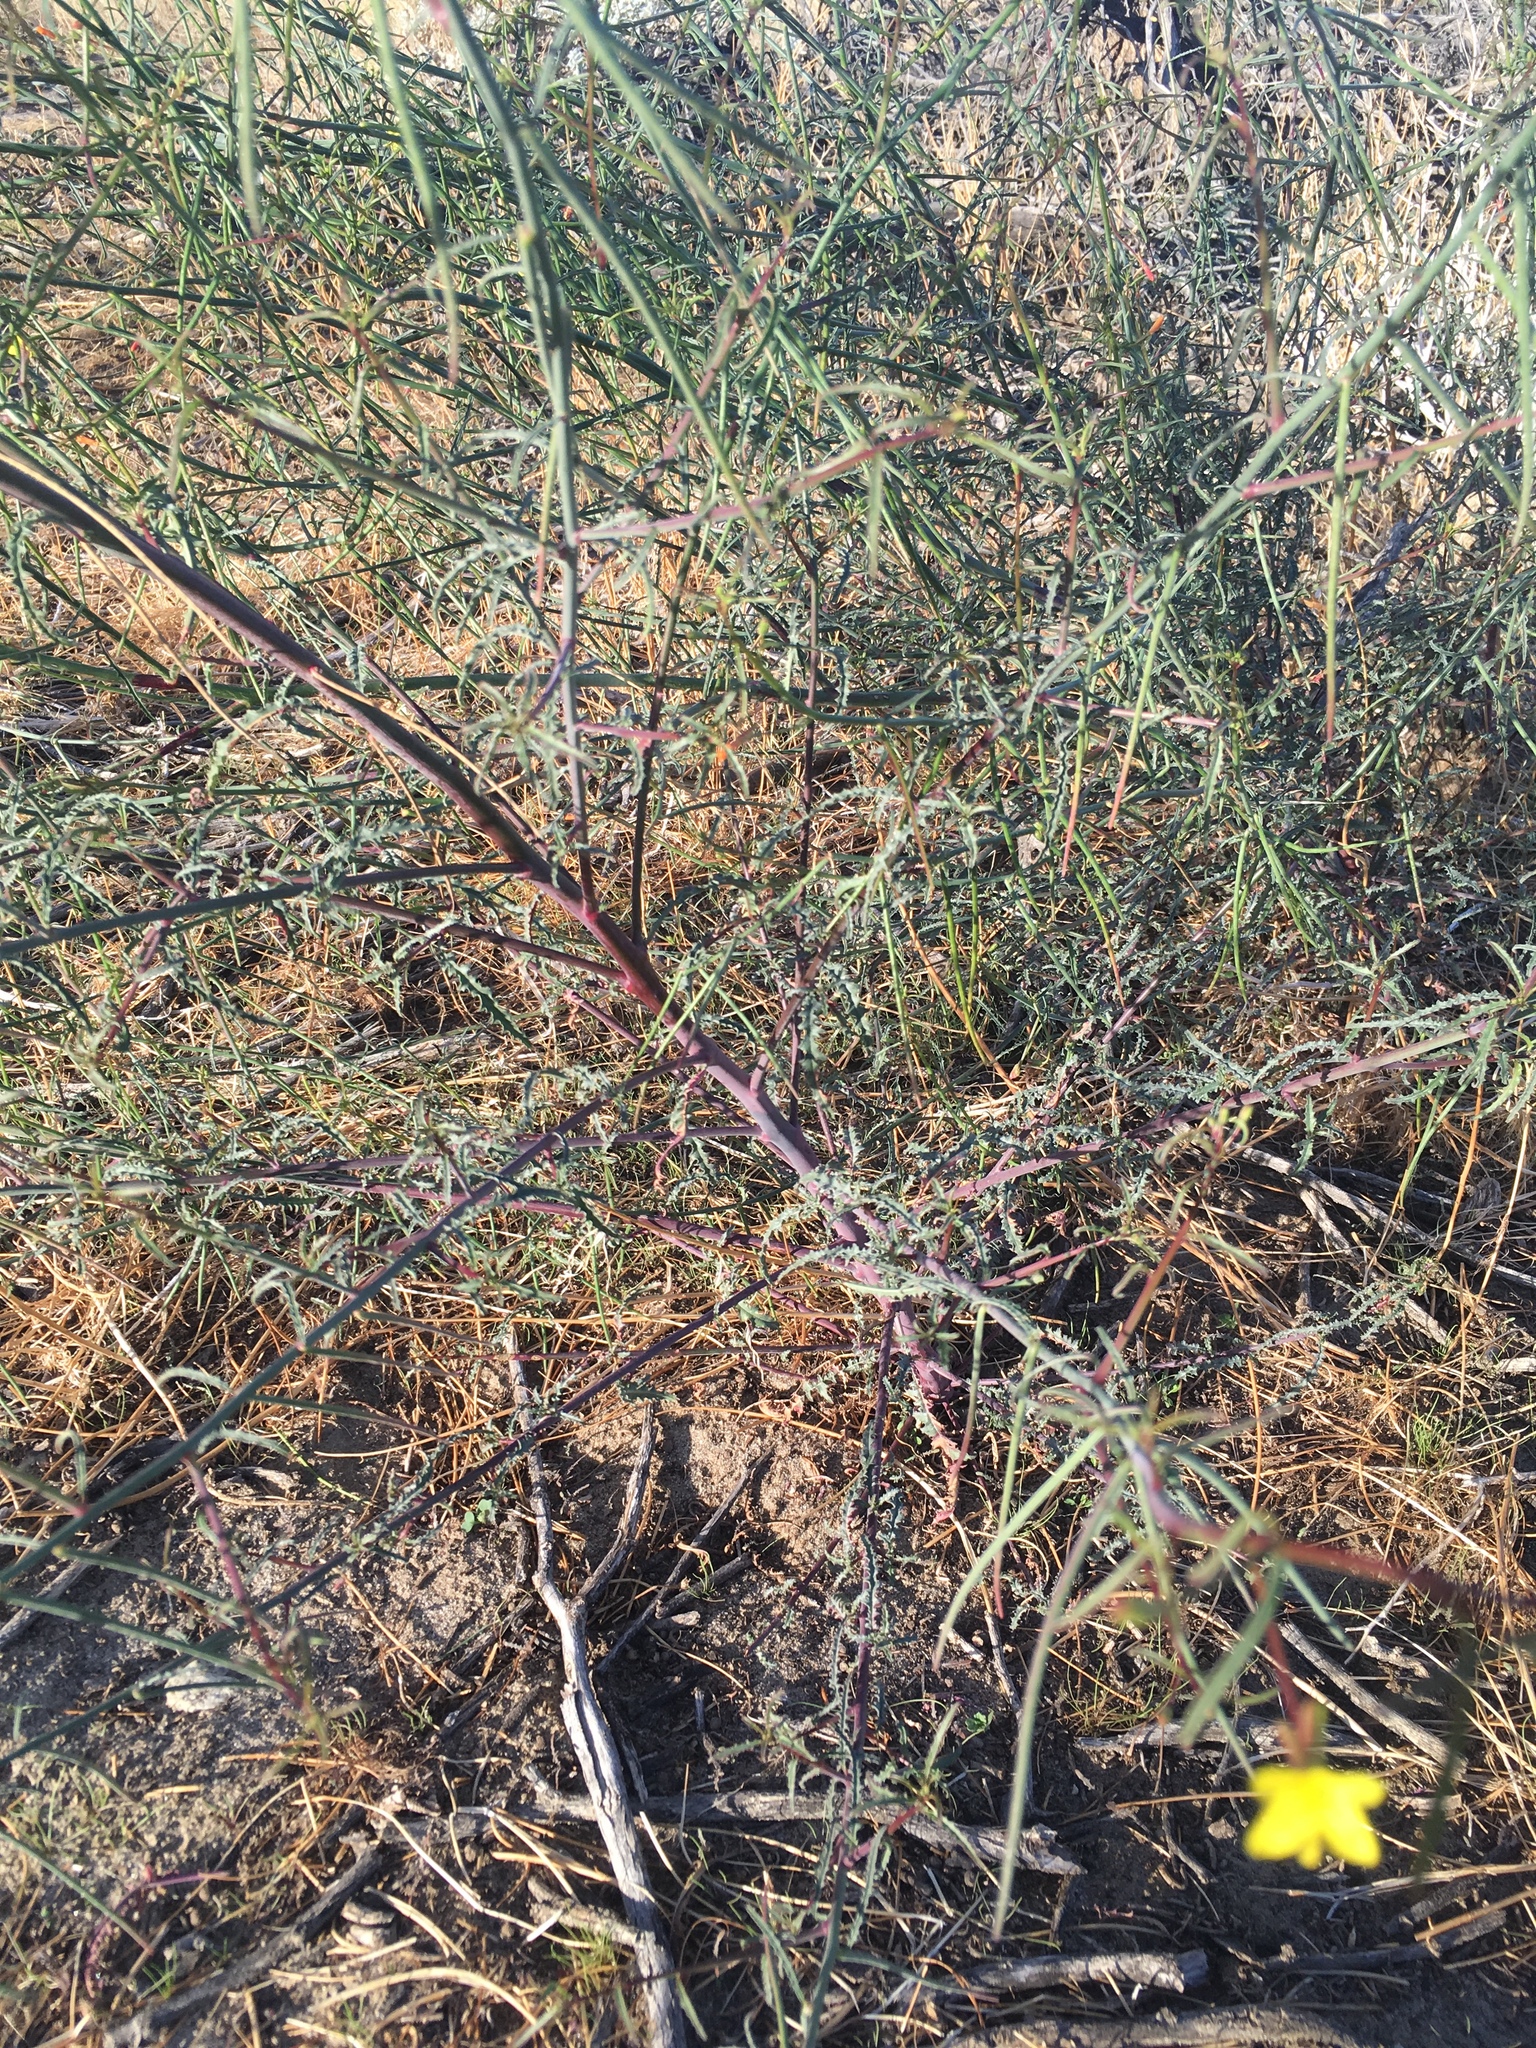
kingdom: Plantae
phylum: Tracheophyta
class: Magnoliopsida
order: Myrtales
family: Onagraceae
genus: Eulobus
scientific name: Eulobus californicus
